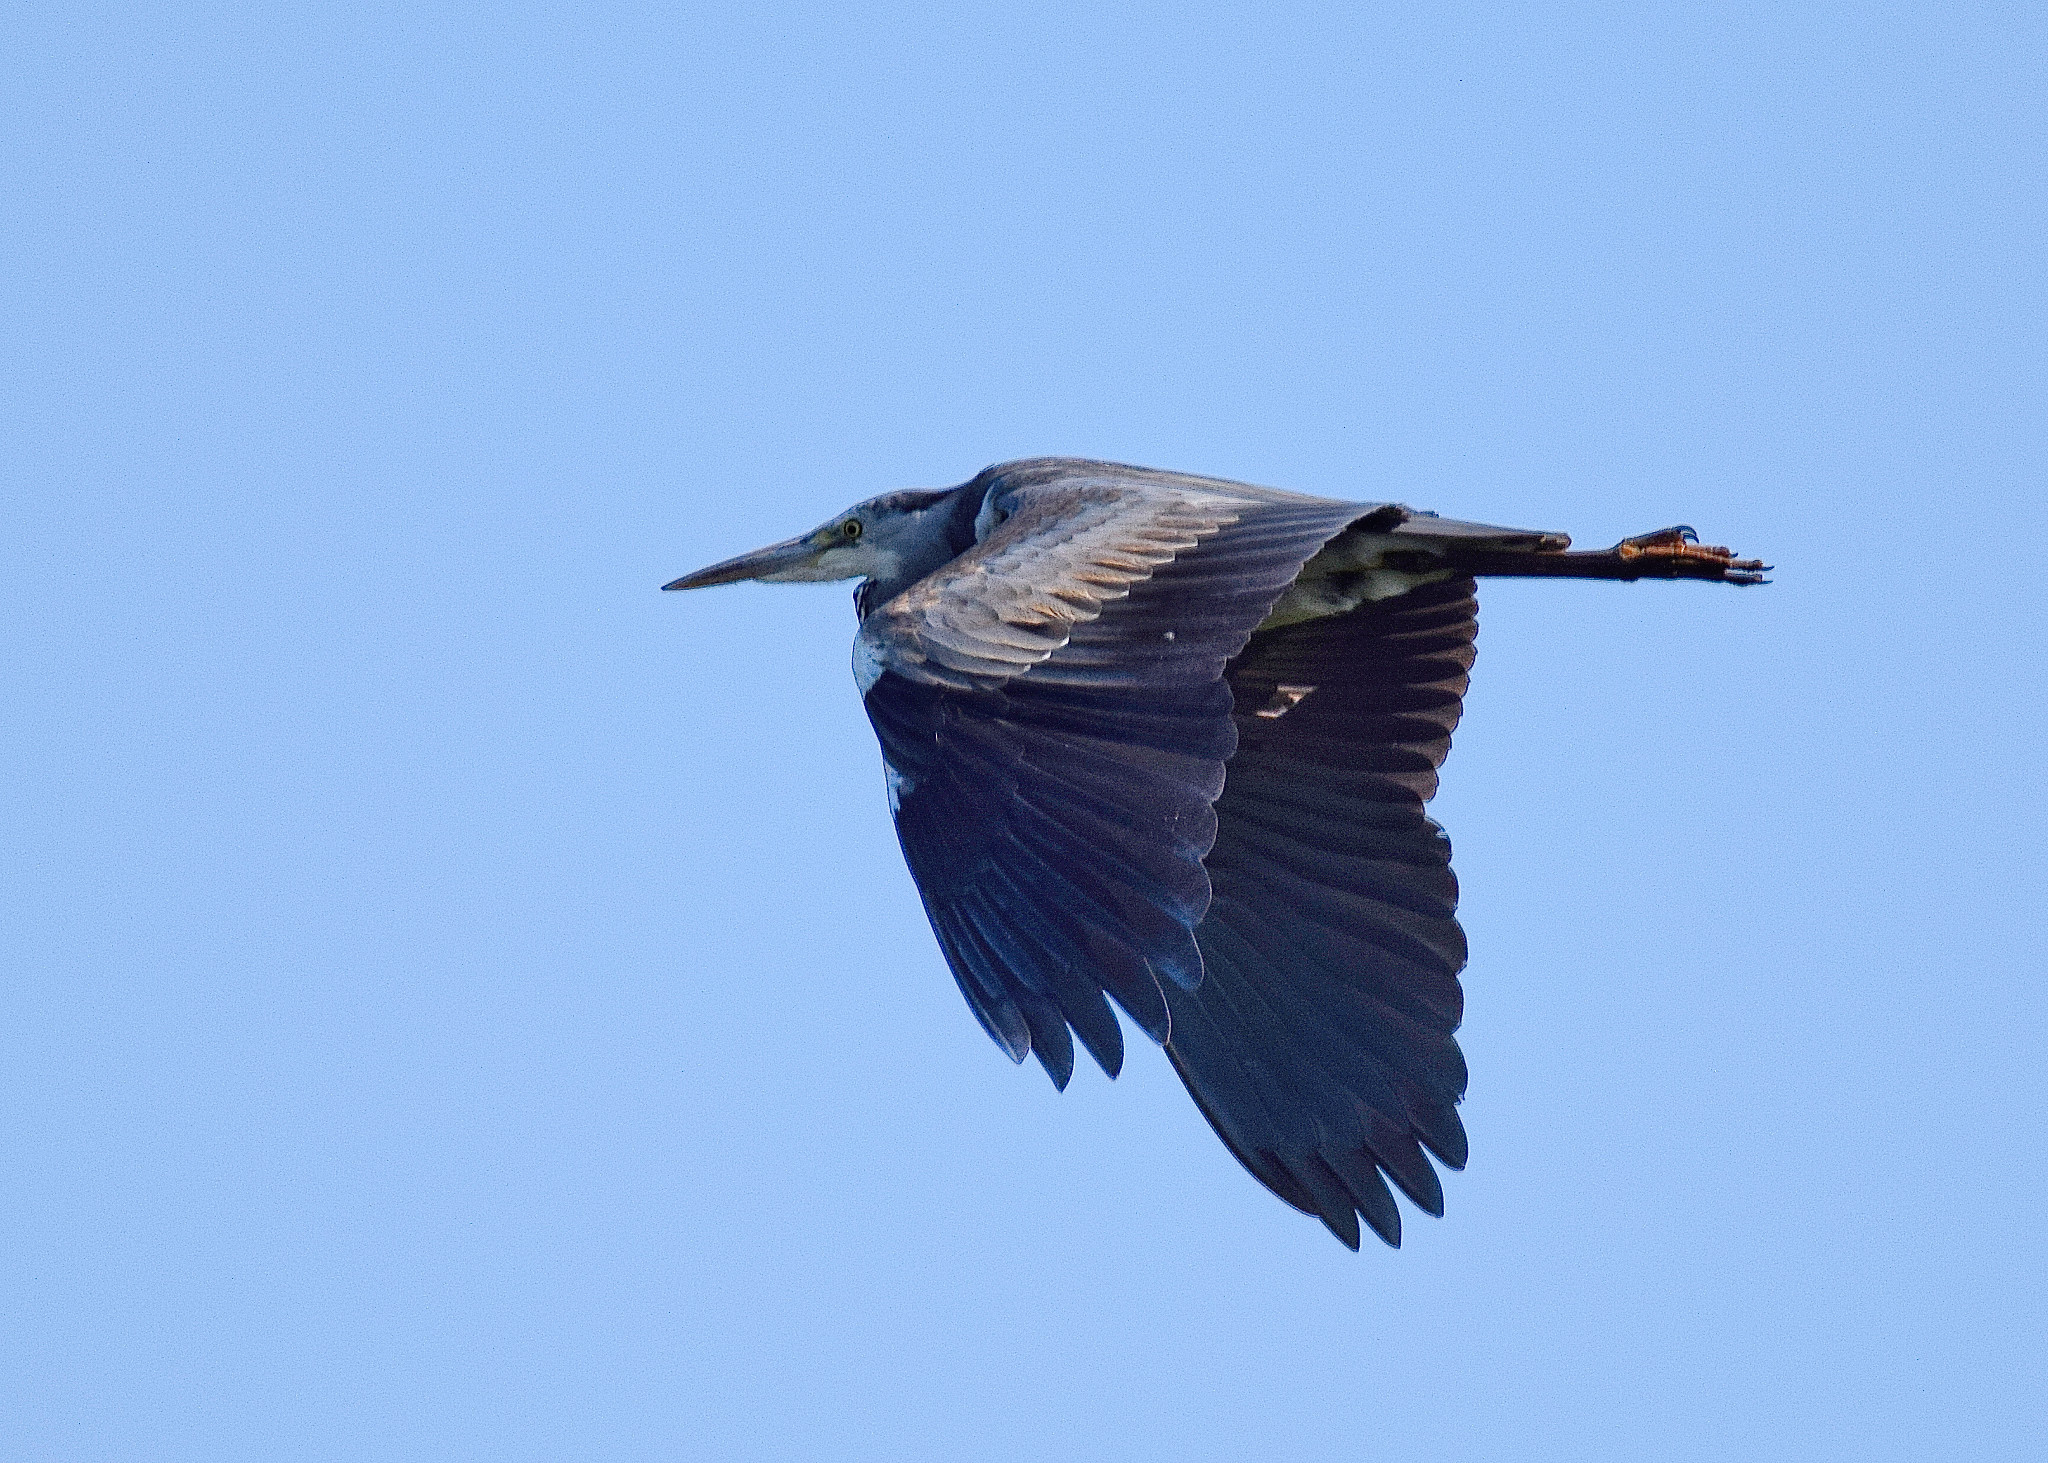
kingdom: Animalia
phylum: Chordata
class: Aves
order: Pelecaniformes
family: Ardeidae
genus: Ardea
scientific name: Ardea cinerea
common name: Grey heron
